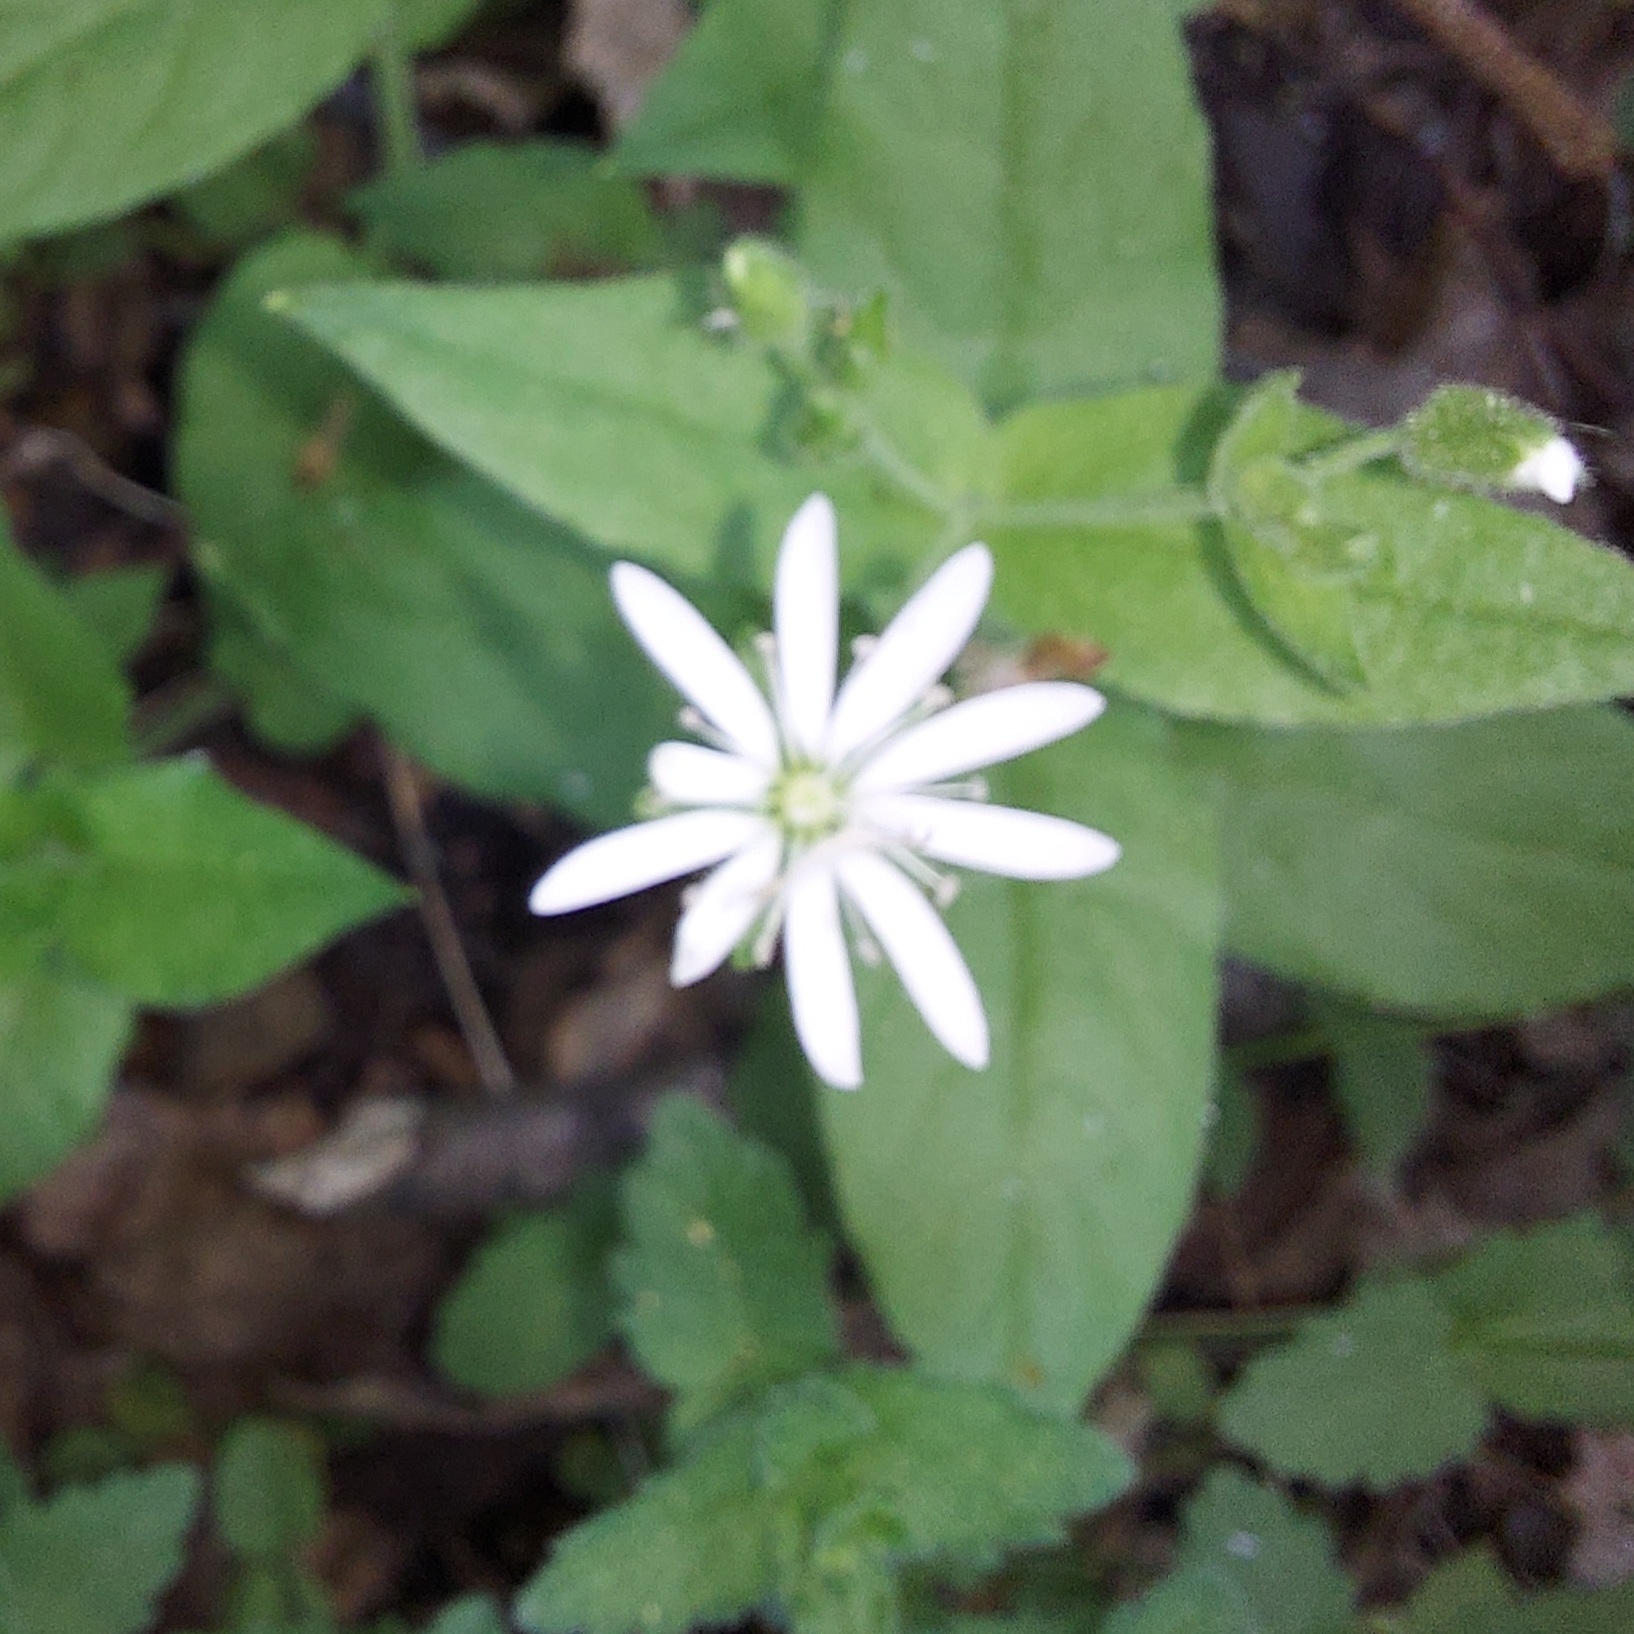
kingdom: Plantae
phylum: Tracheophyta
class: Magnoliopsida
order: Caryophyllales
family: Caryophyllaceae
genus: Stellaria
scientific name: Stellaria bungeana
